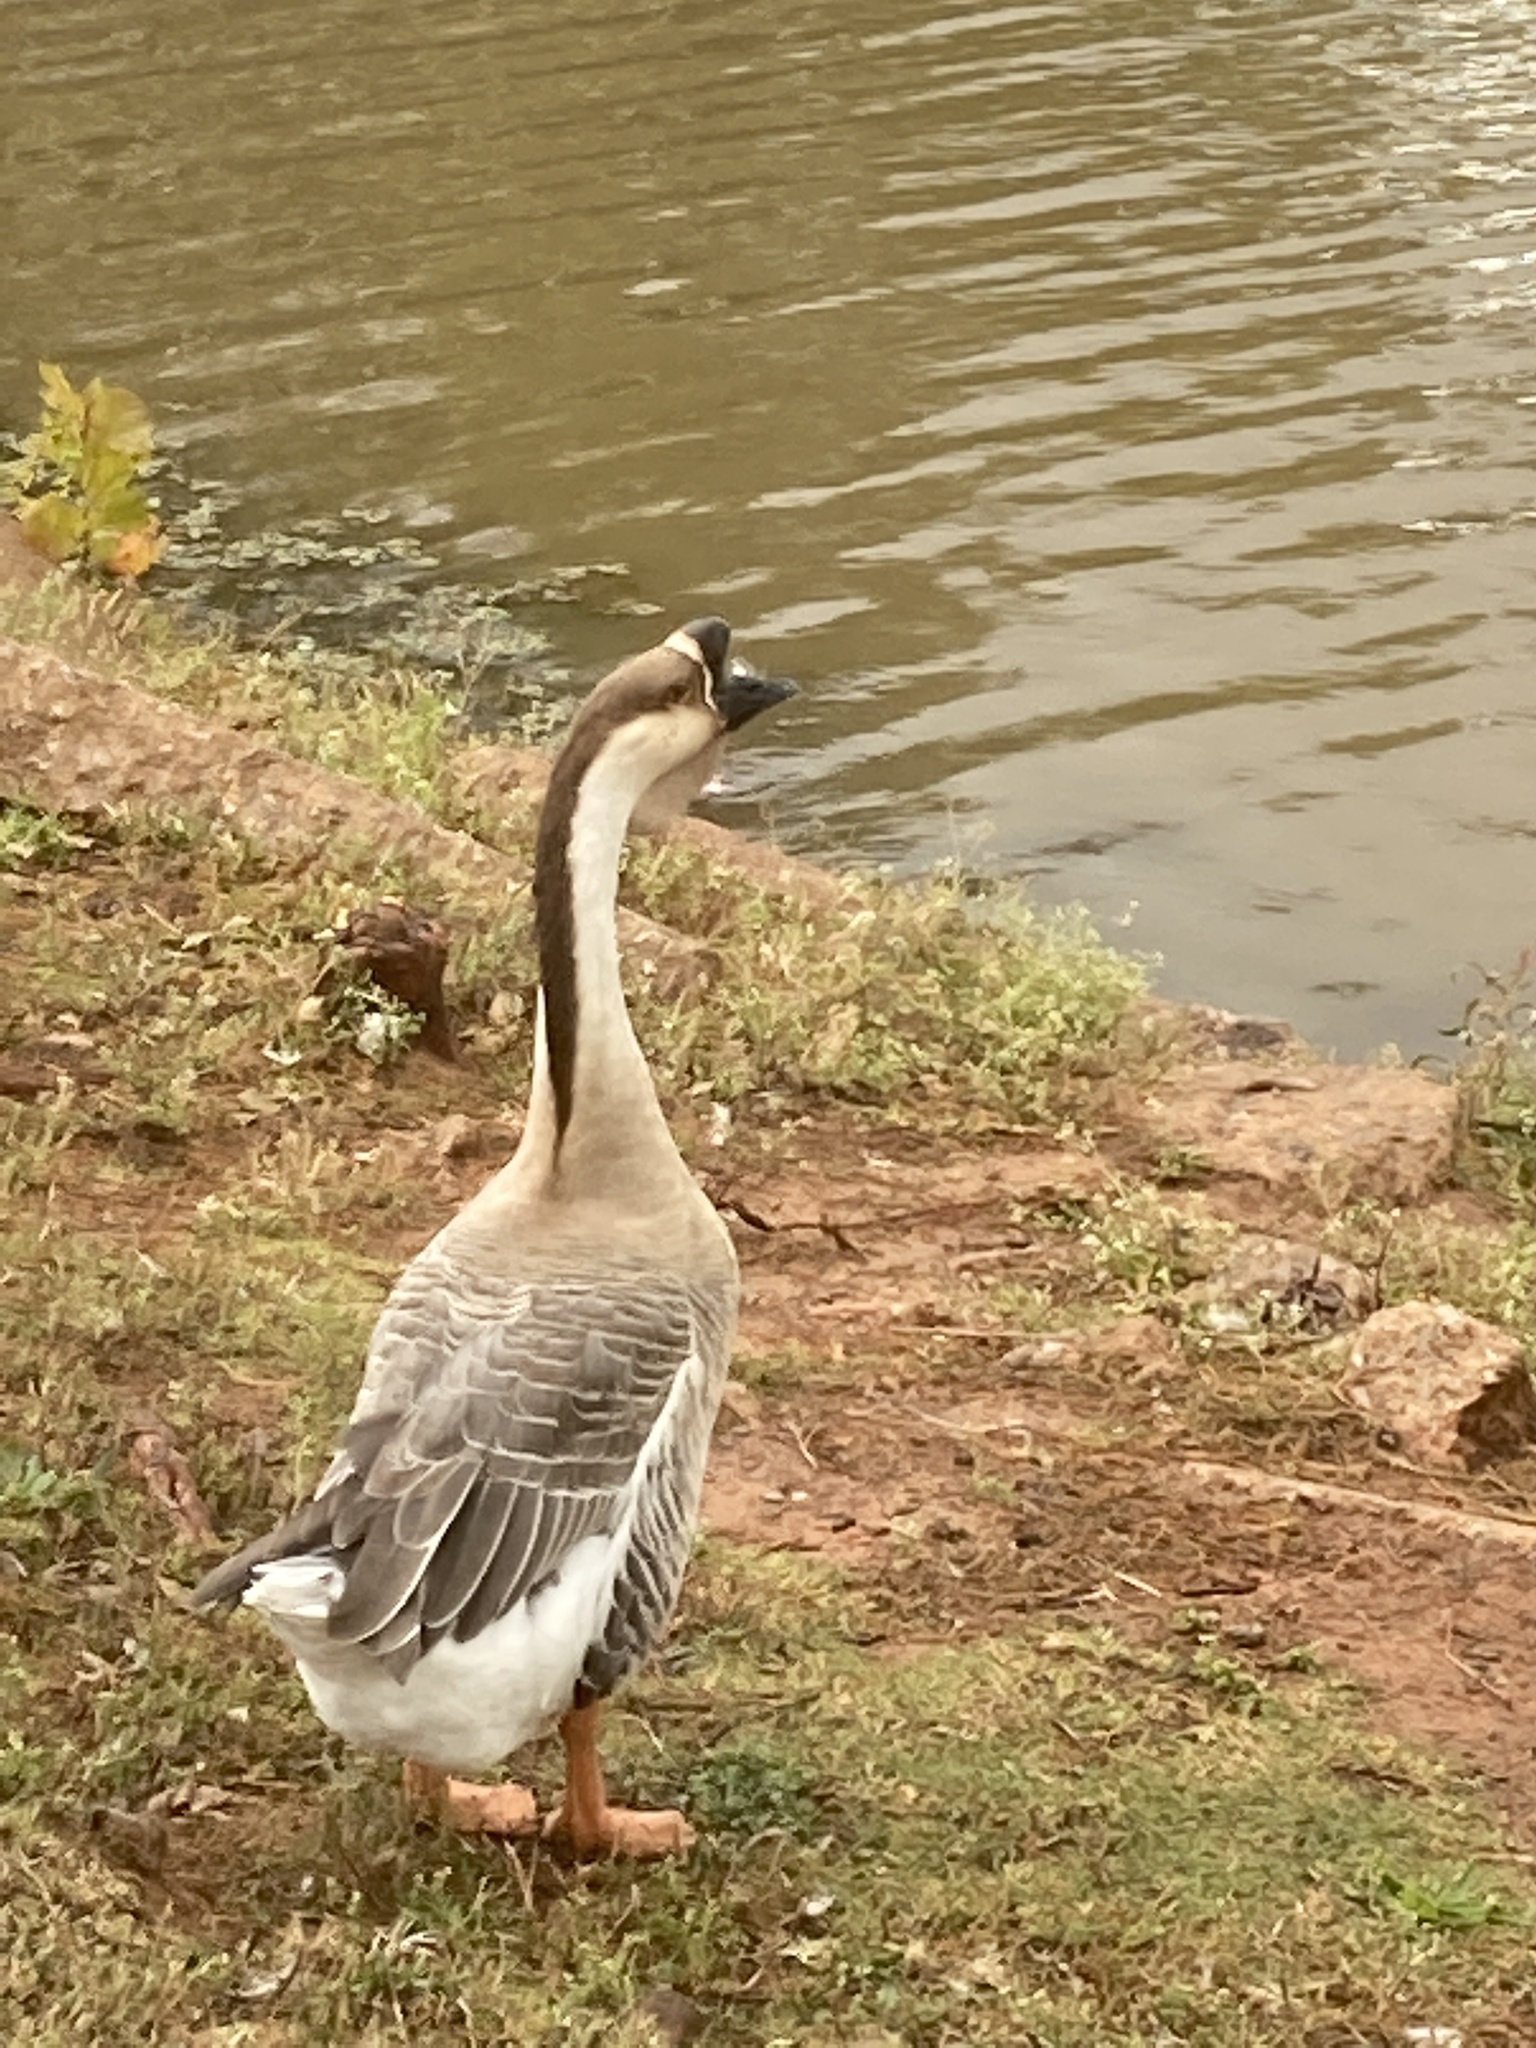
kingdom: Animalia
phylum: Chordata
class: Aves
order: Anseriformes
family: Anatidae
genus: Anser
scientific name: Anser cygnoides
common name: Swan goose
